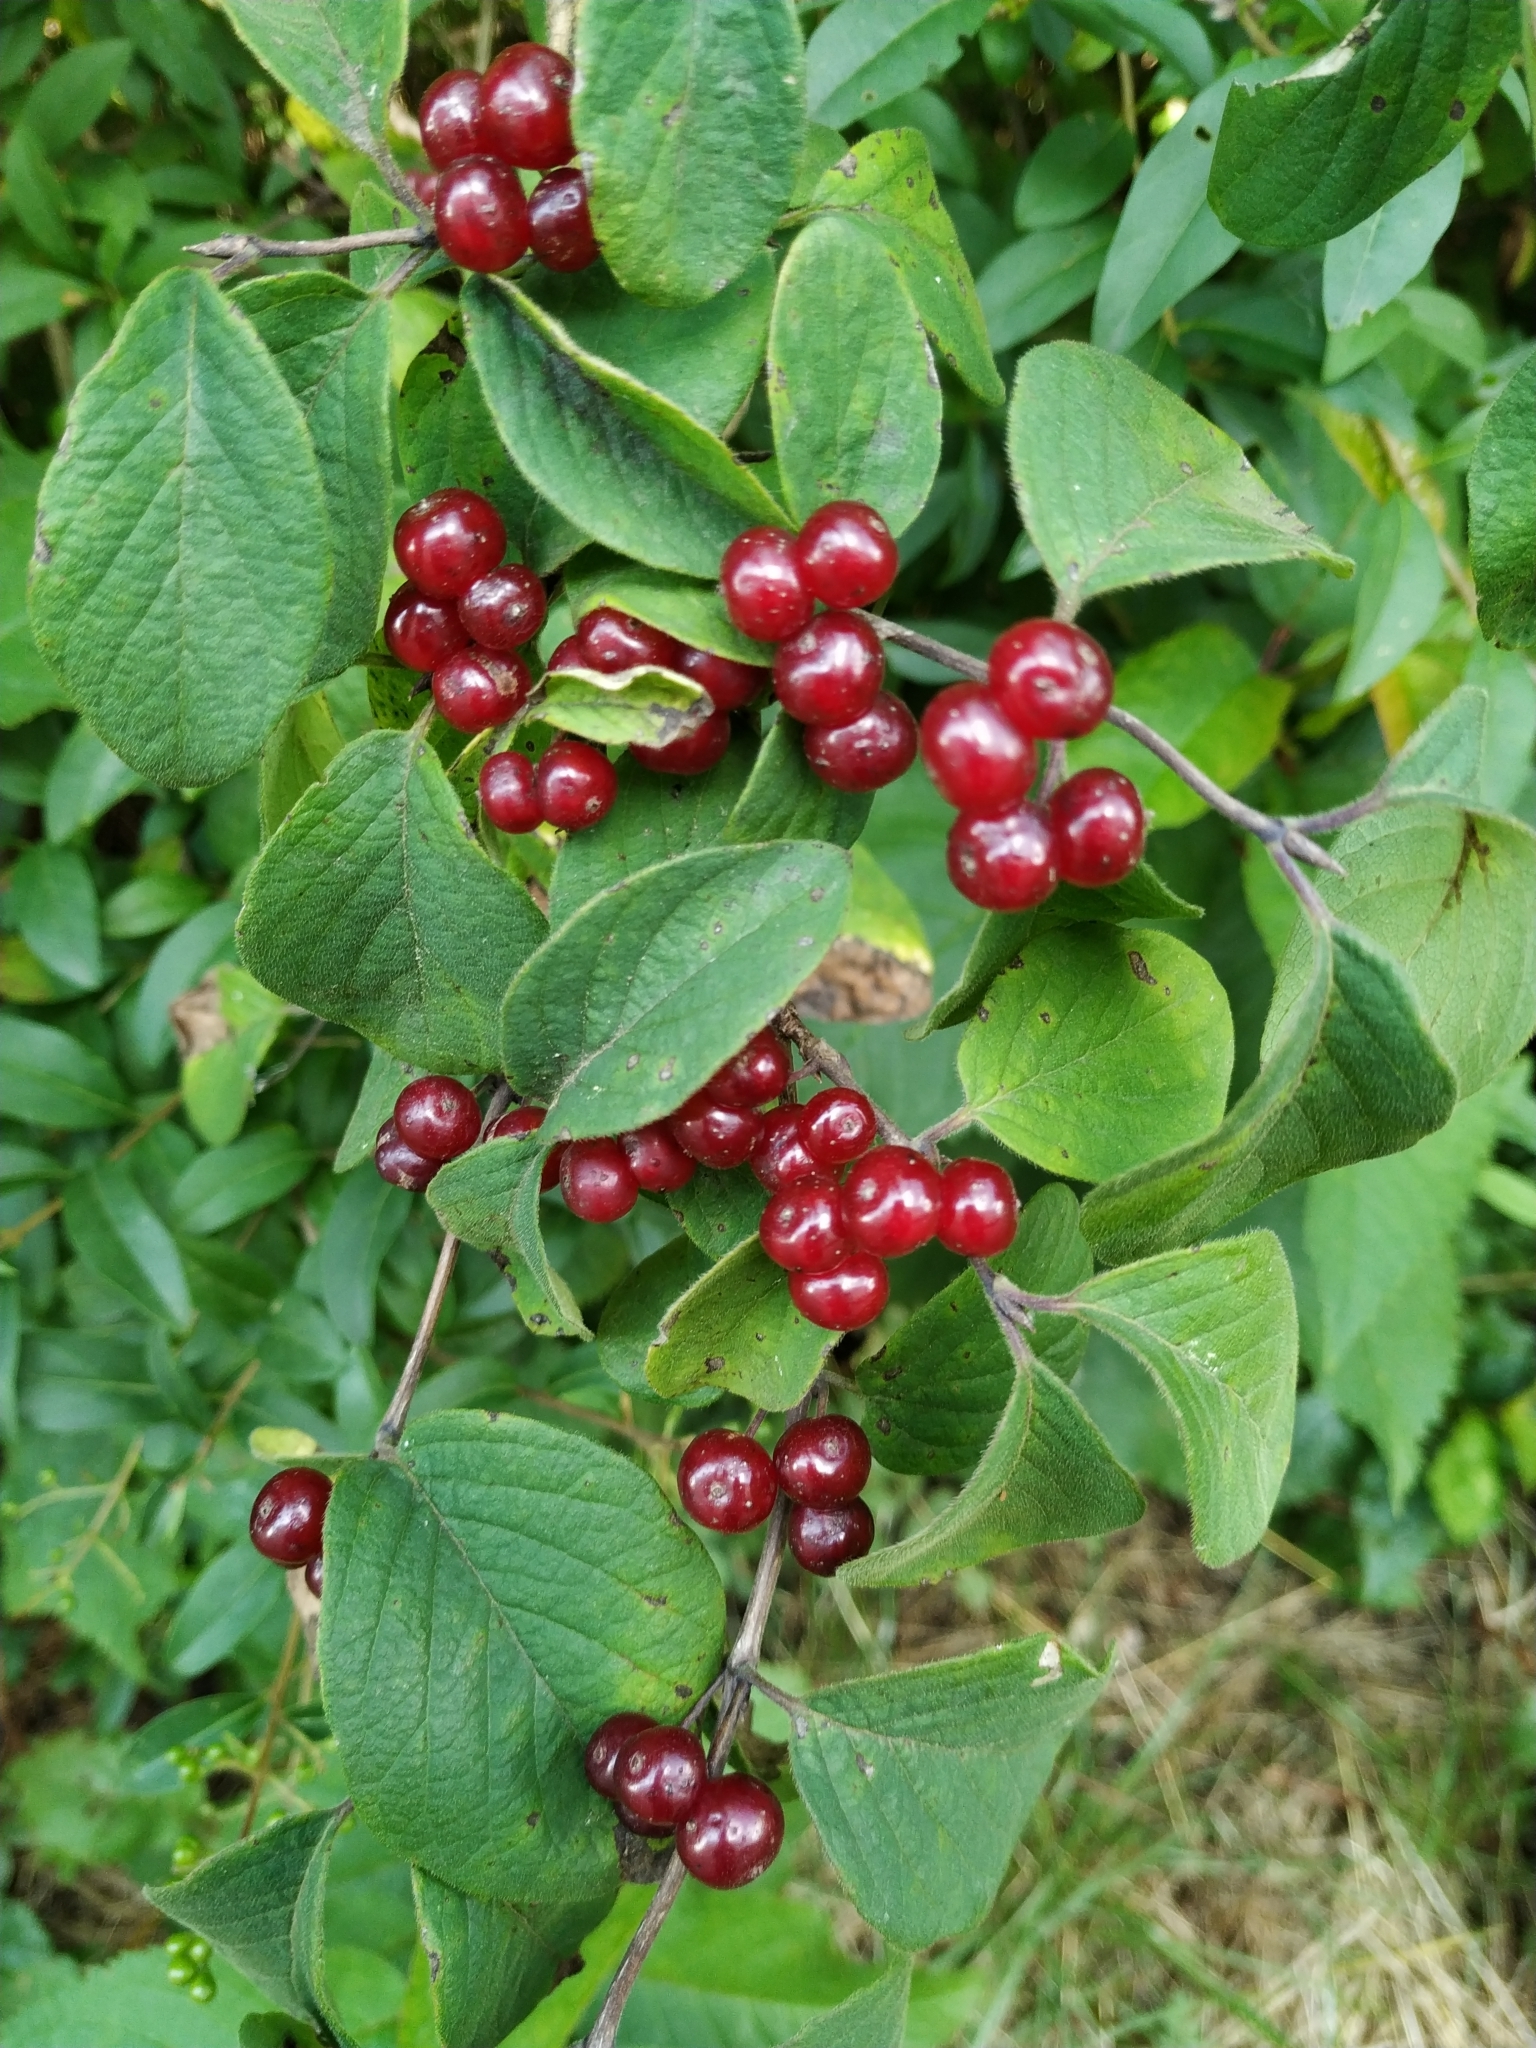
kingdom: Plantae
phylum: Tracheophyta
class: Magnoliopsida
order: Dipsacales
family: Caprifoliaceae
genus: Lonicera
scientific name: Lonicera xylosteum
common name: Fly honeysuckle
